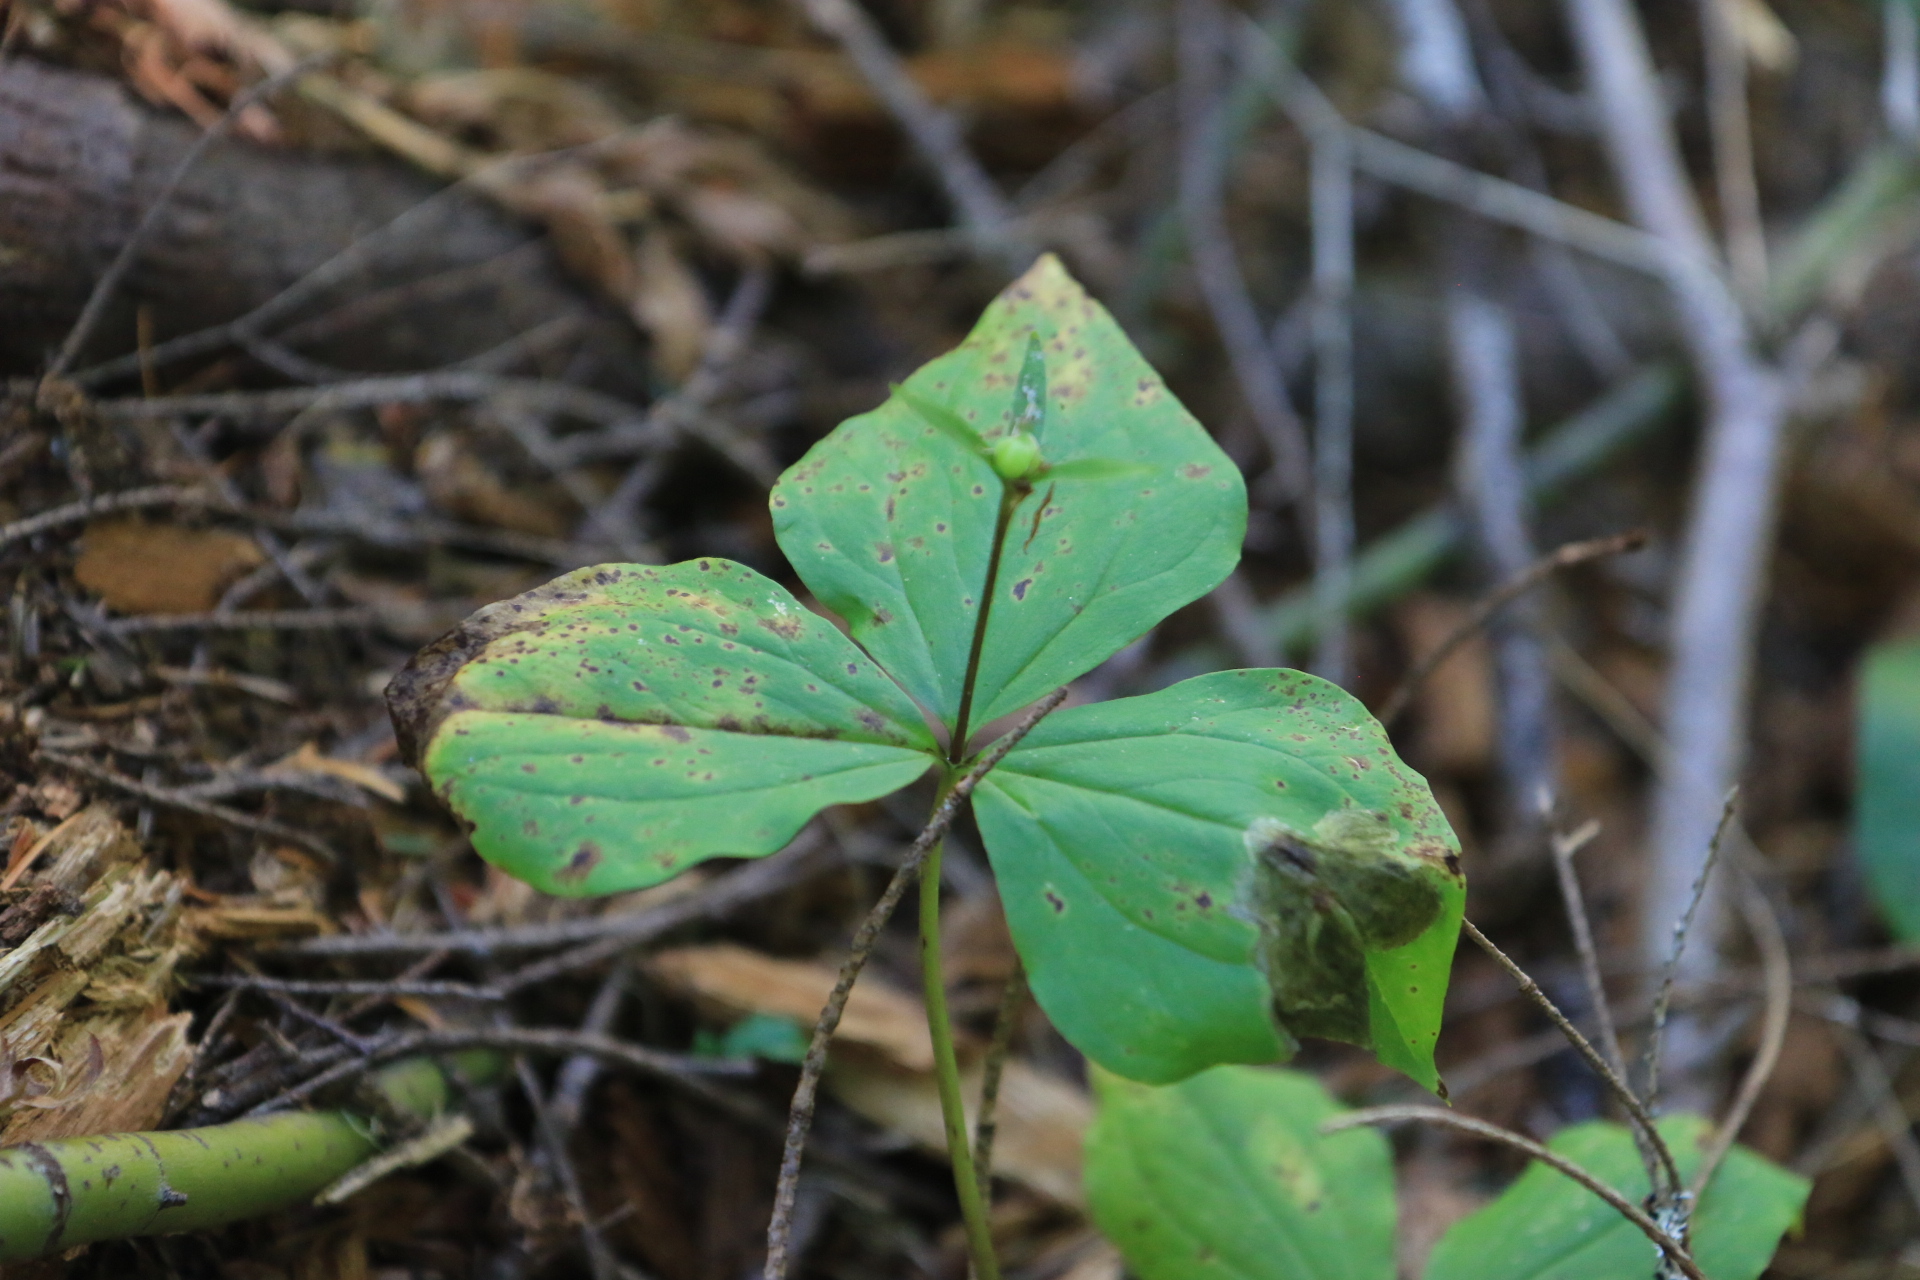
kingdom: Plantae
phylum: Tracheophyta
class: Liliopsida
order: Liliales
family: Melanthiaceae
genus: Trillium
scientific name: Trillium ovatum
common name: Pacific trillium
